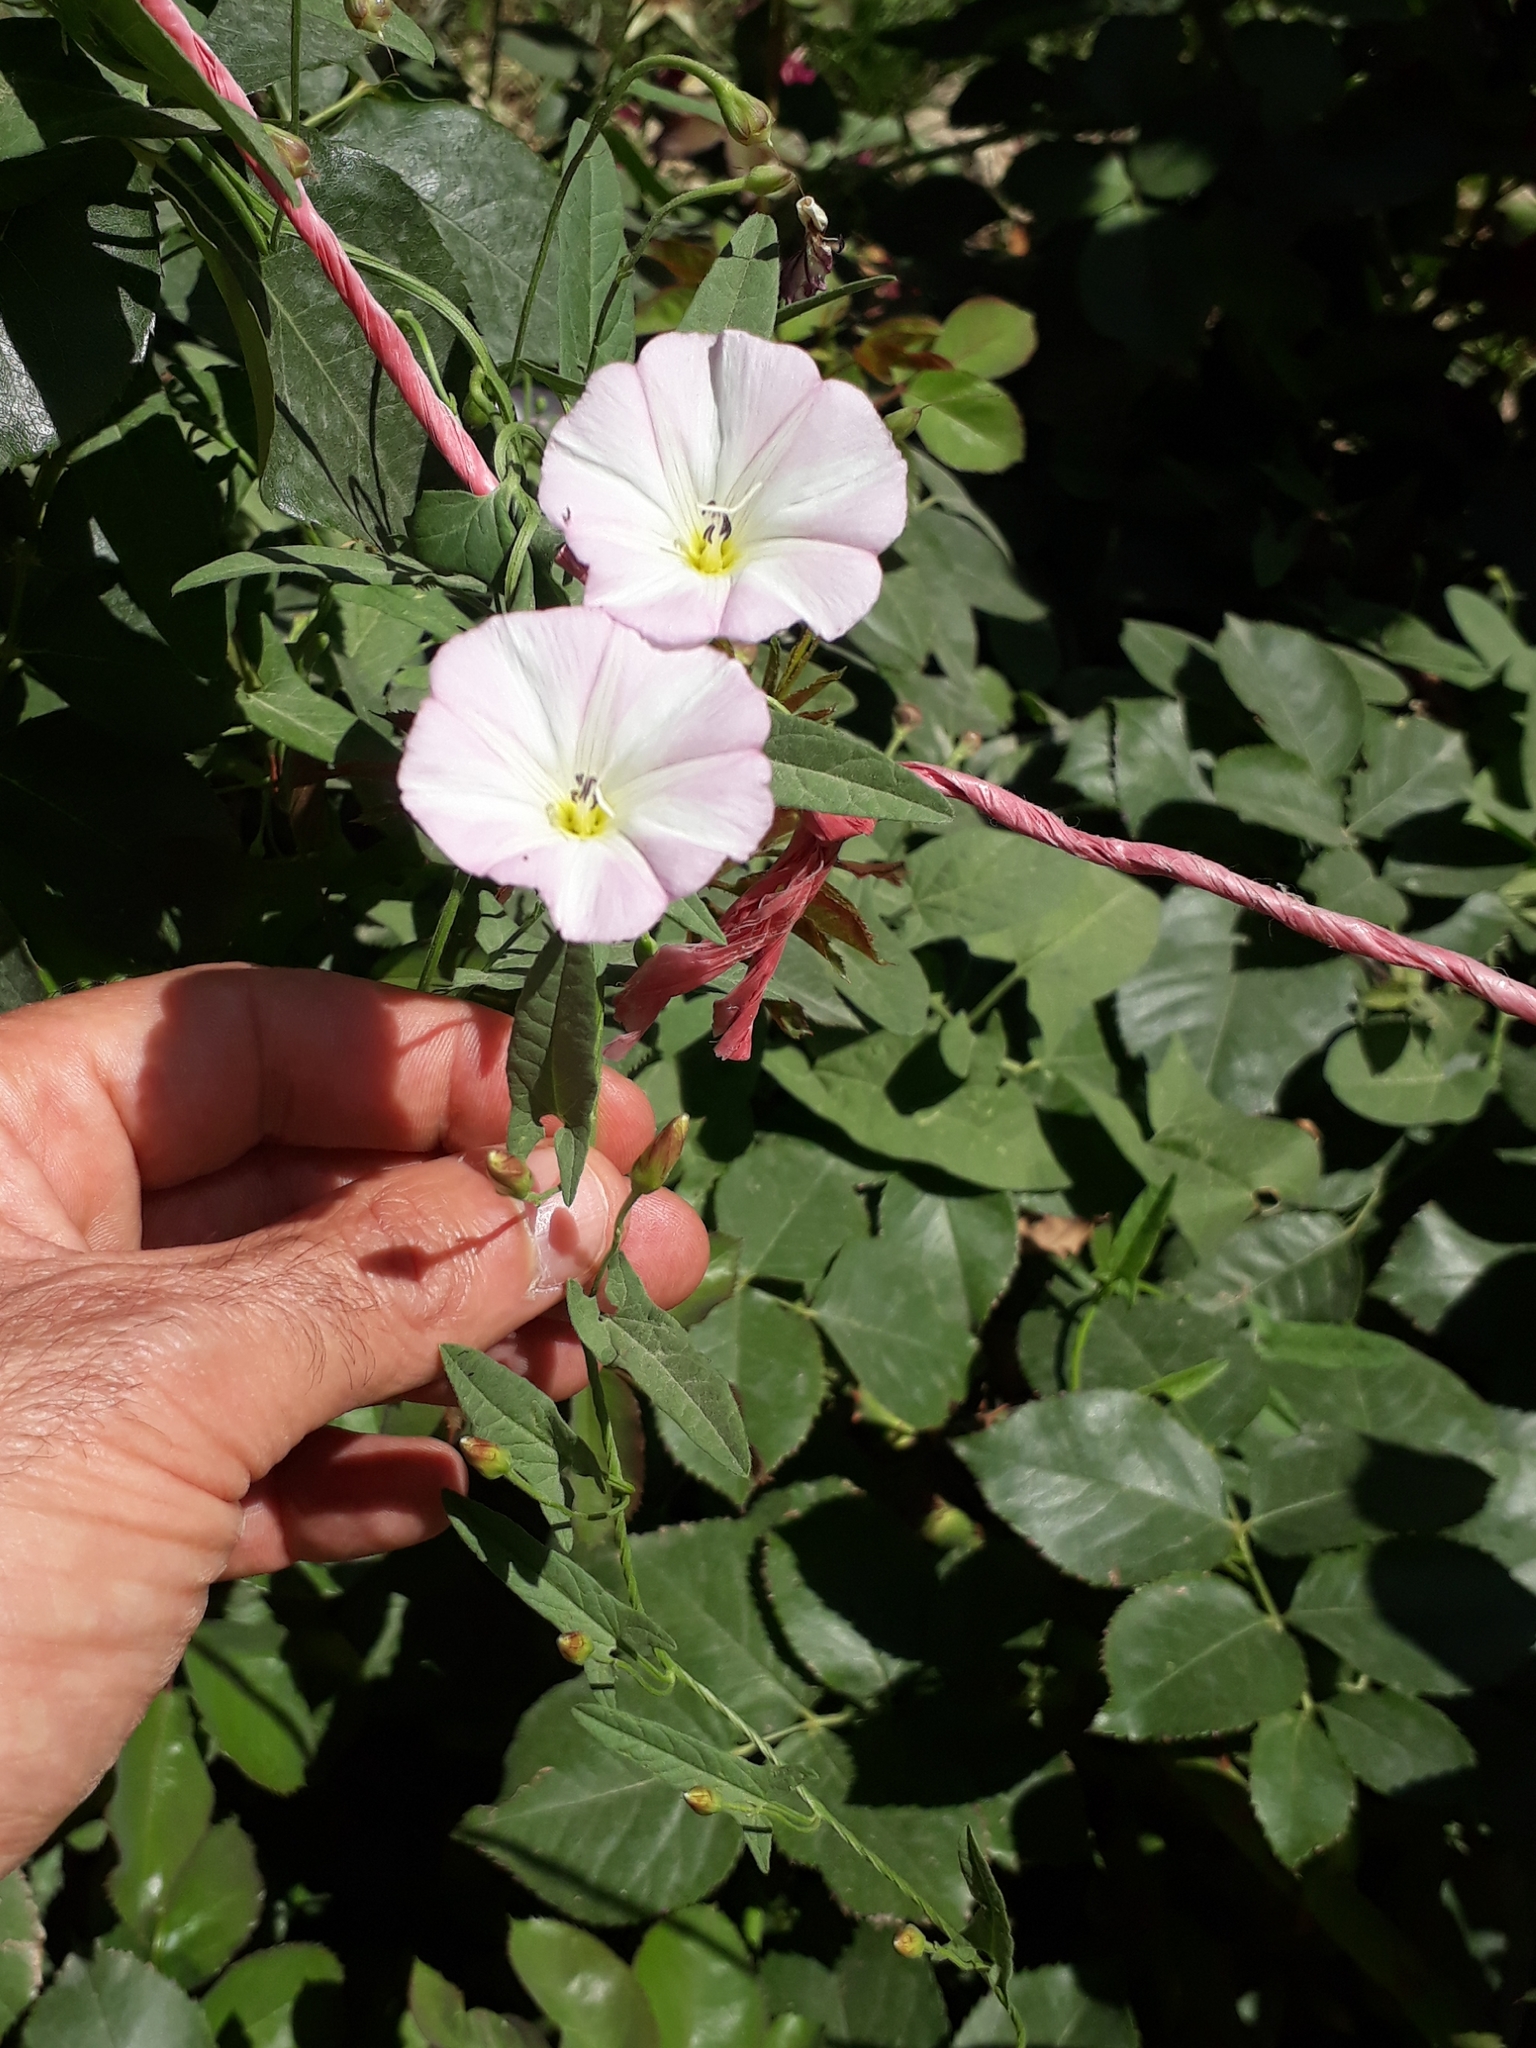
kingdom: Plantae
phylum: Tracheophyta
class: Magnoliopsida
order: Solanales
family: Convolvulaceae
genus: Convolvulus
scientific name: Convolvulus arvensis
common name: Field bindweed
